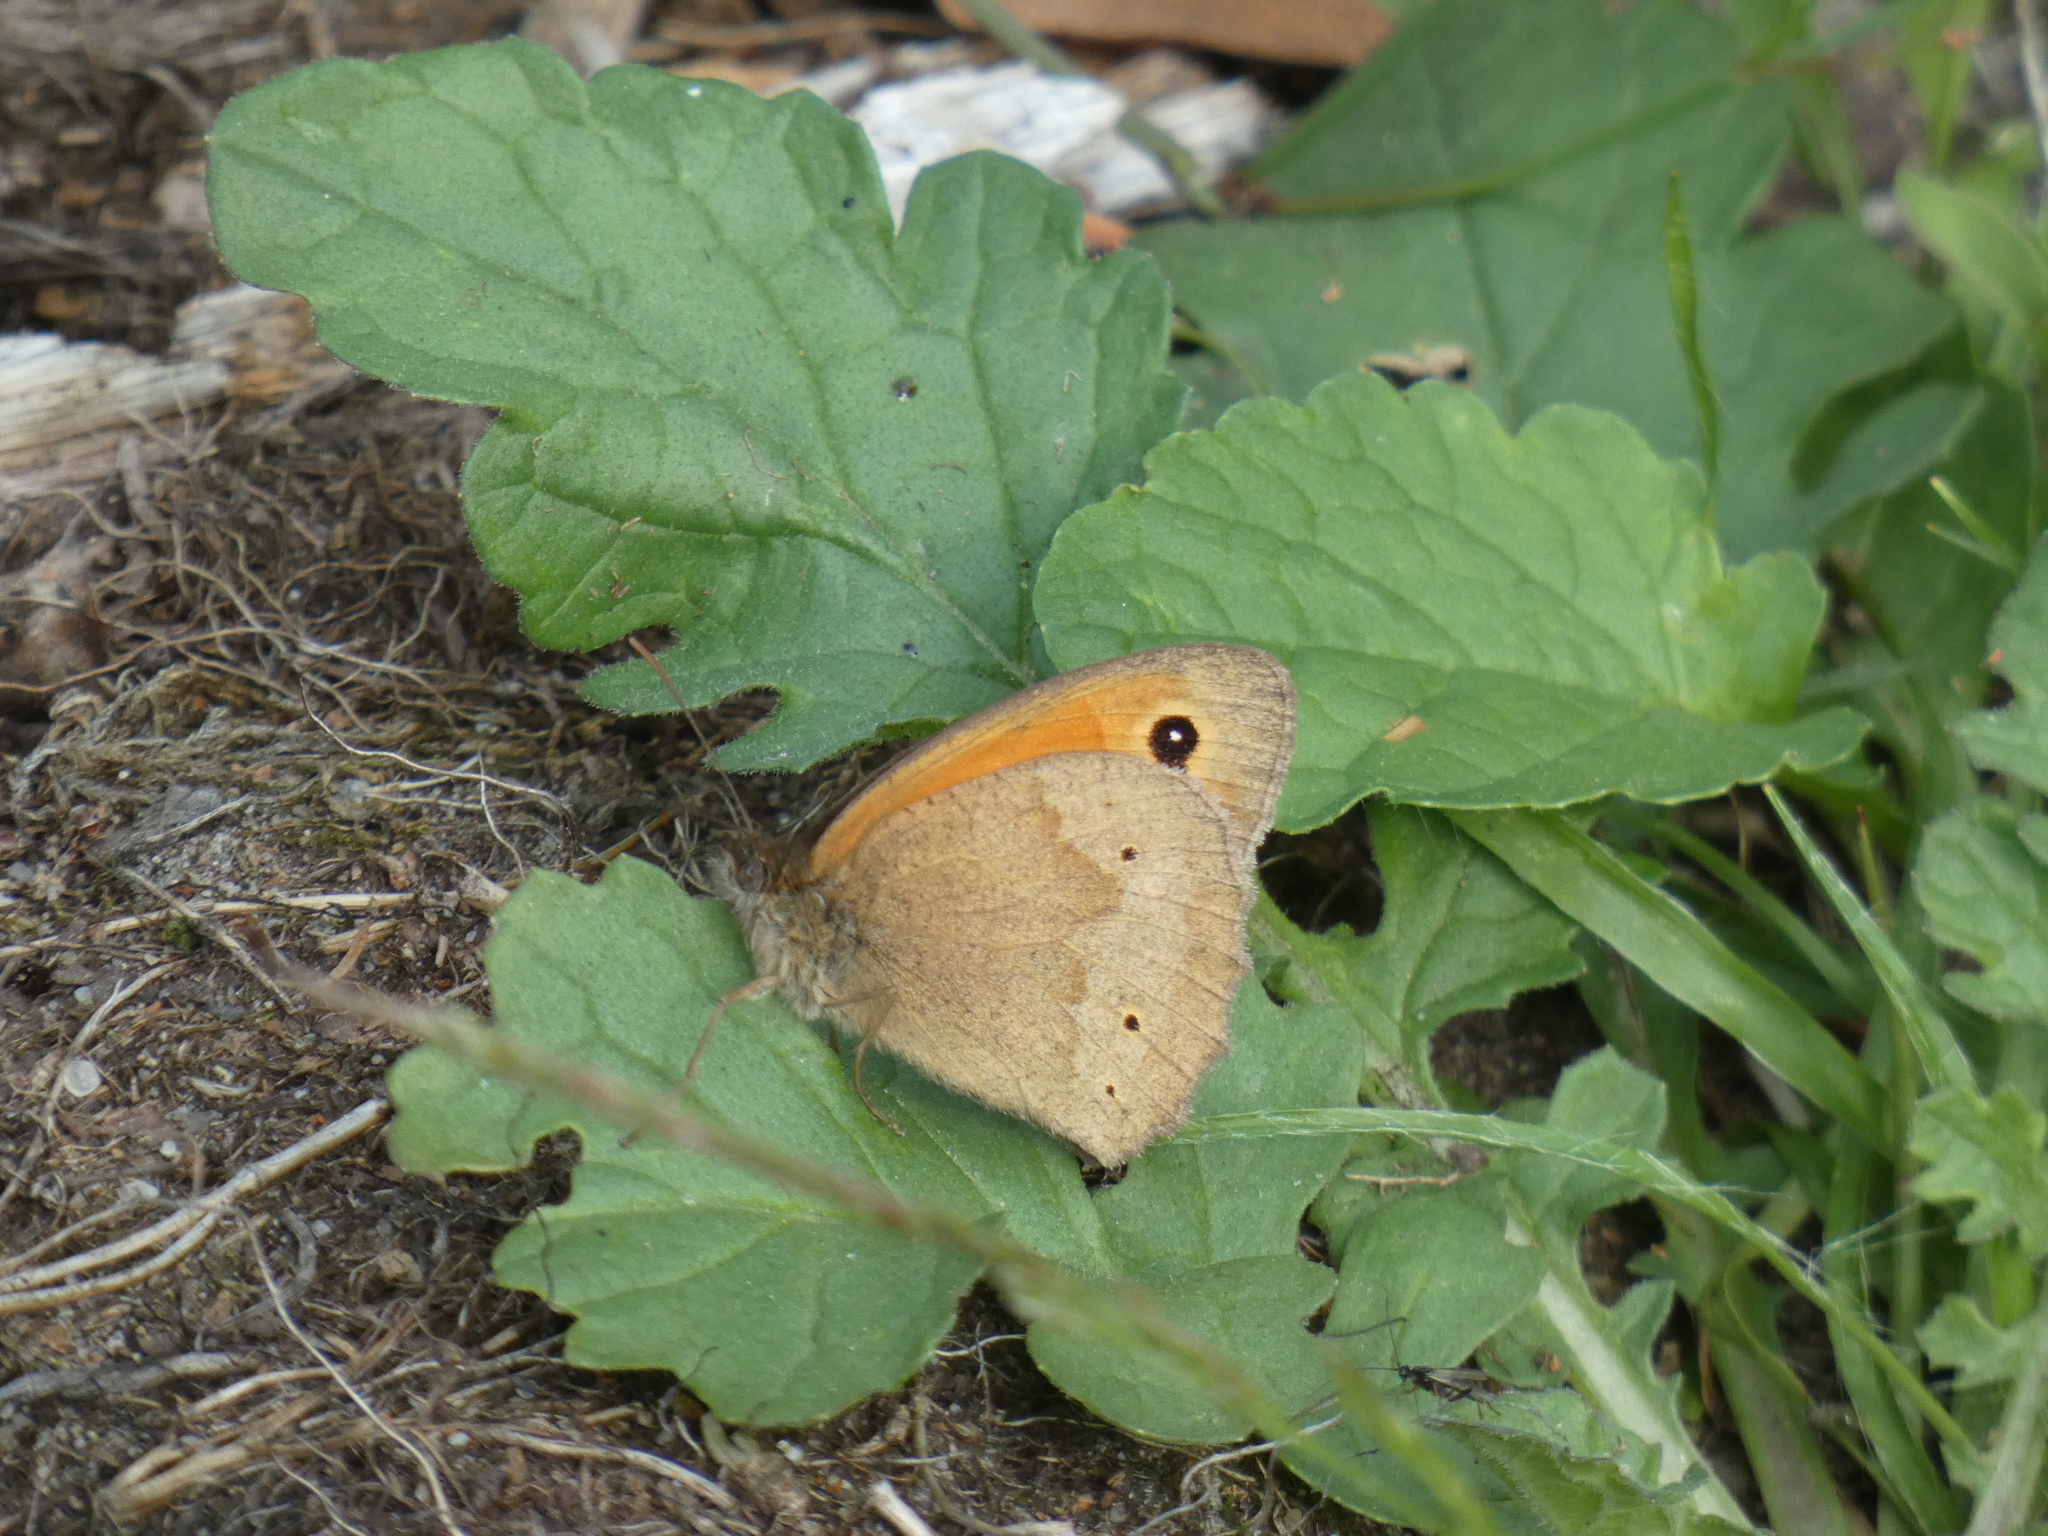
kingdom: Animalia
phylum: Arthropoda
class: Insecta
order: Lepidoptera
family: Nymphalidae
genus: Maniola
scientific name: Maniola jurtina
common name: Meadow brown
